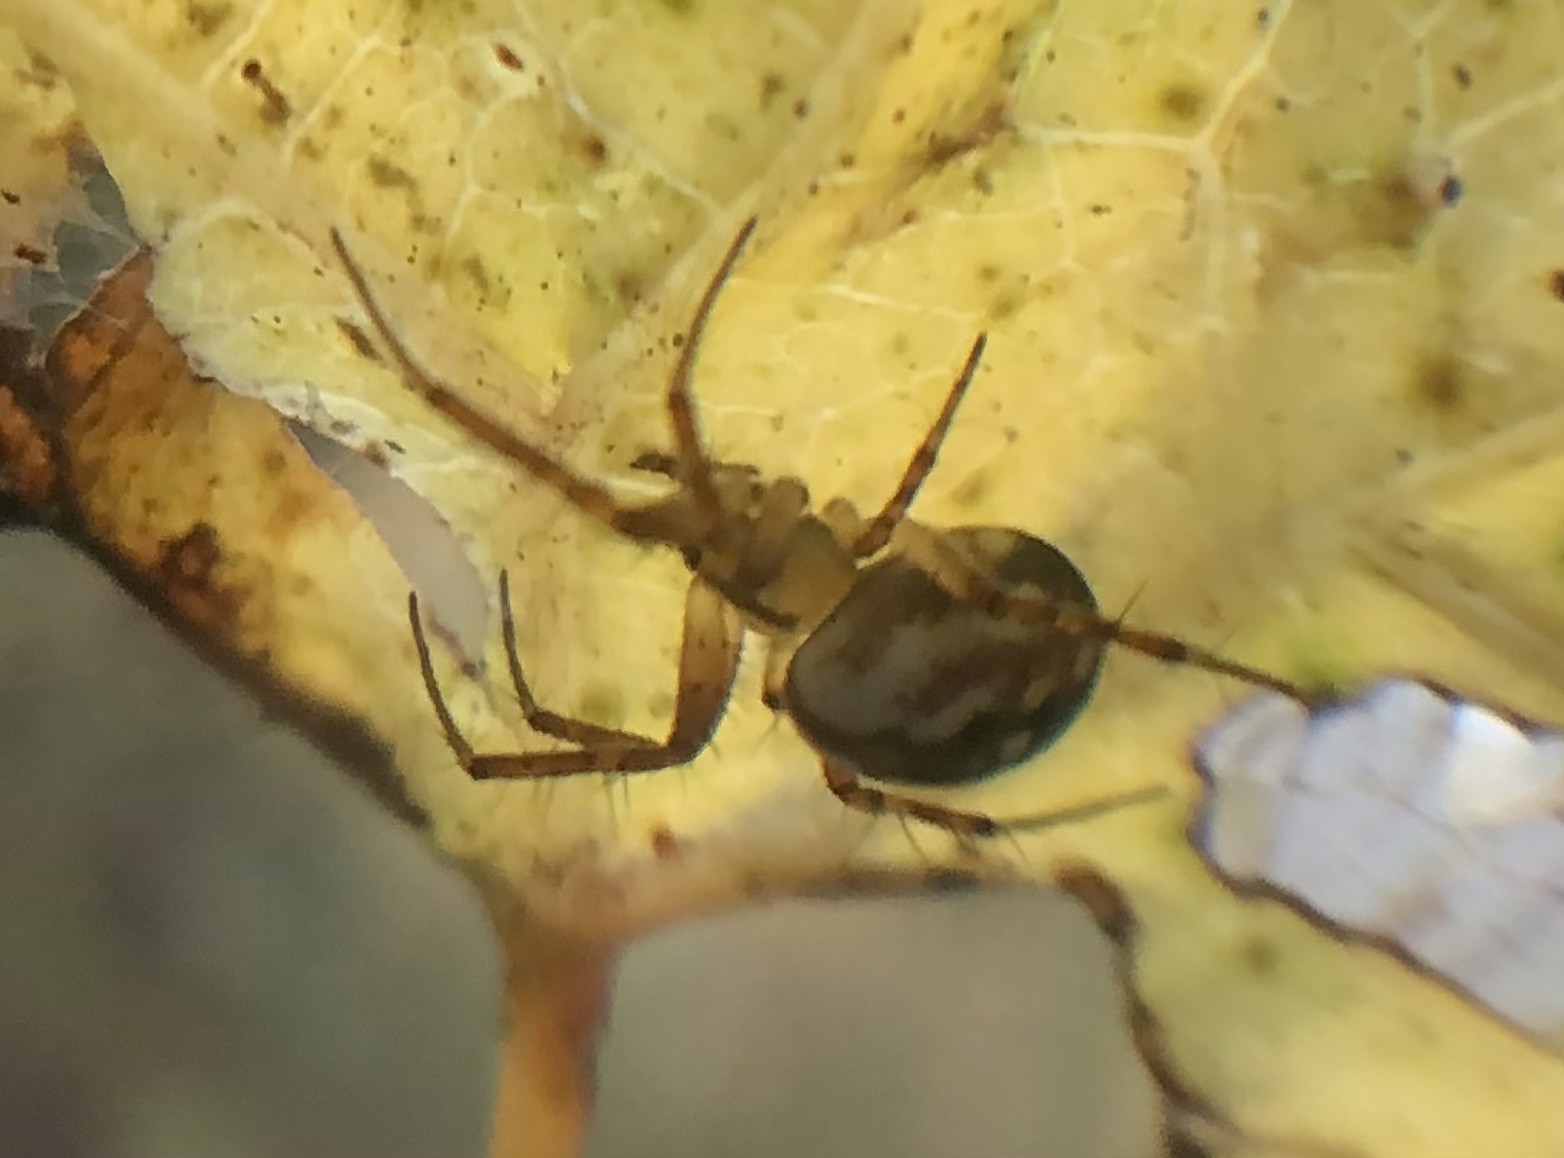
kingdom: Animalia
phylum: Arthropoda
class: Arachnida
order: Araneae
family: Araneidae
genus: Mangora
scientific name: Mangora placida
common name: Tuft-legged orbweaver
